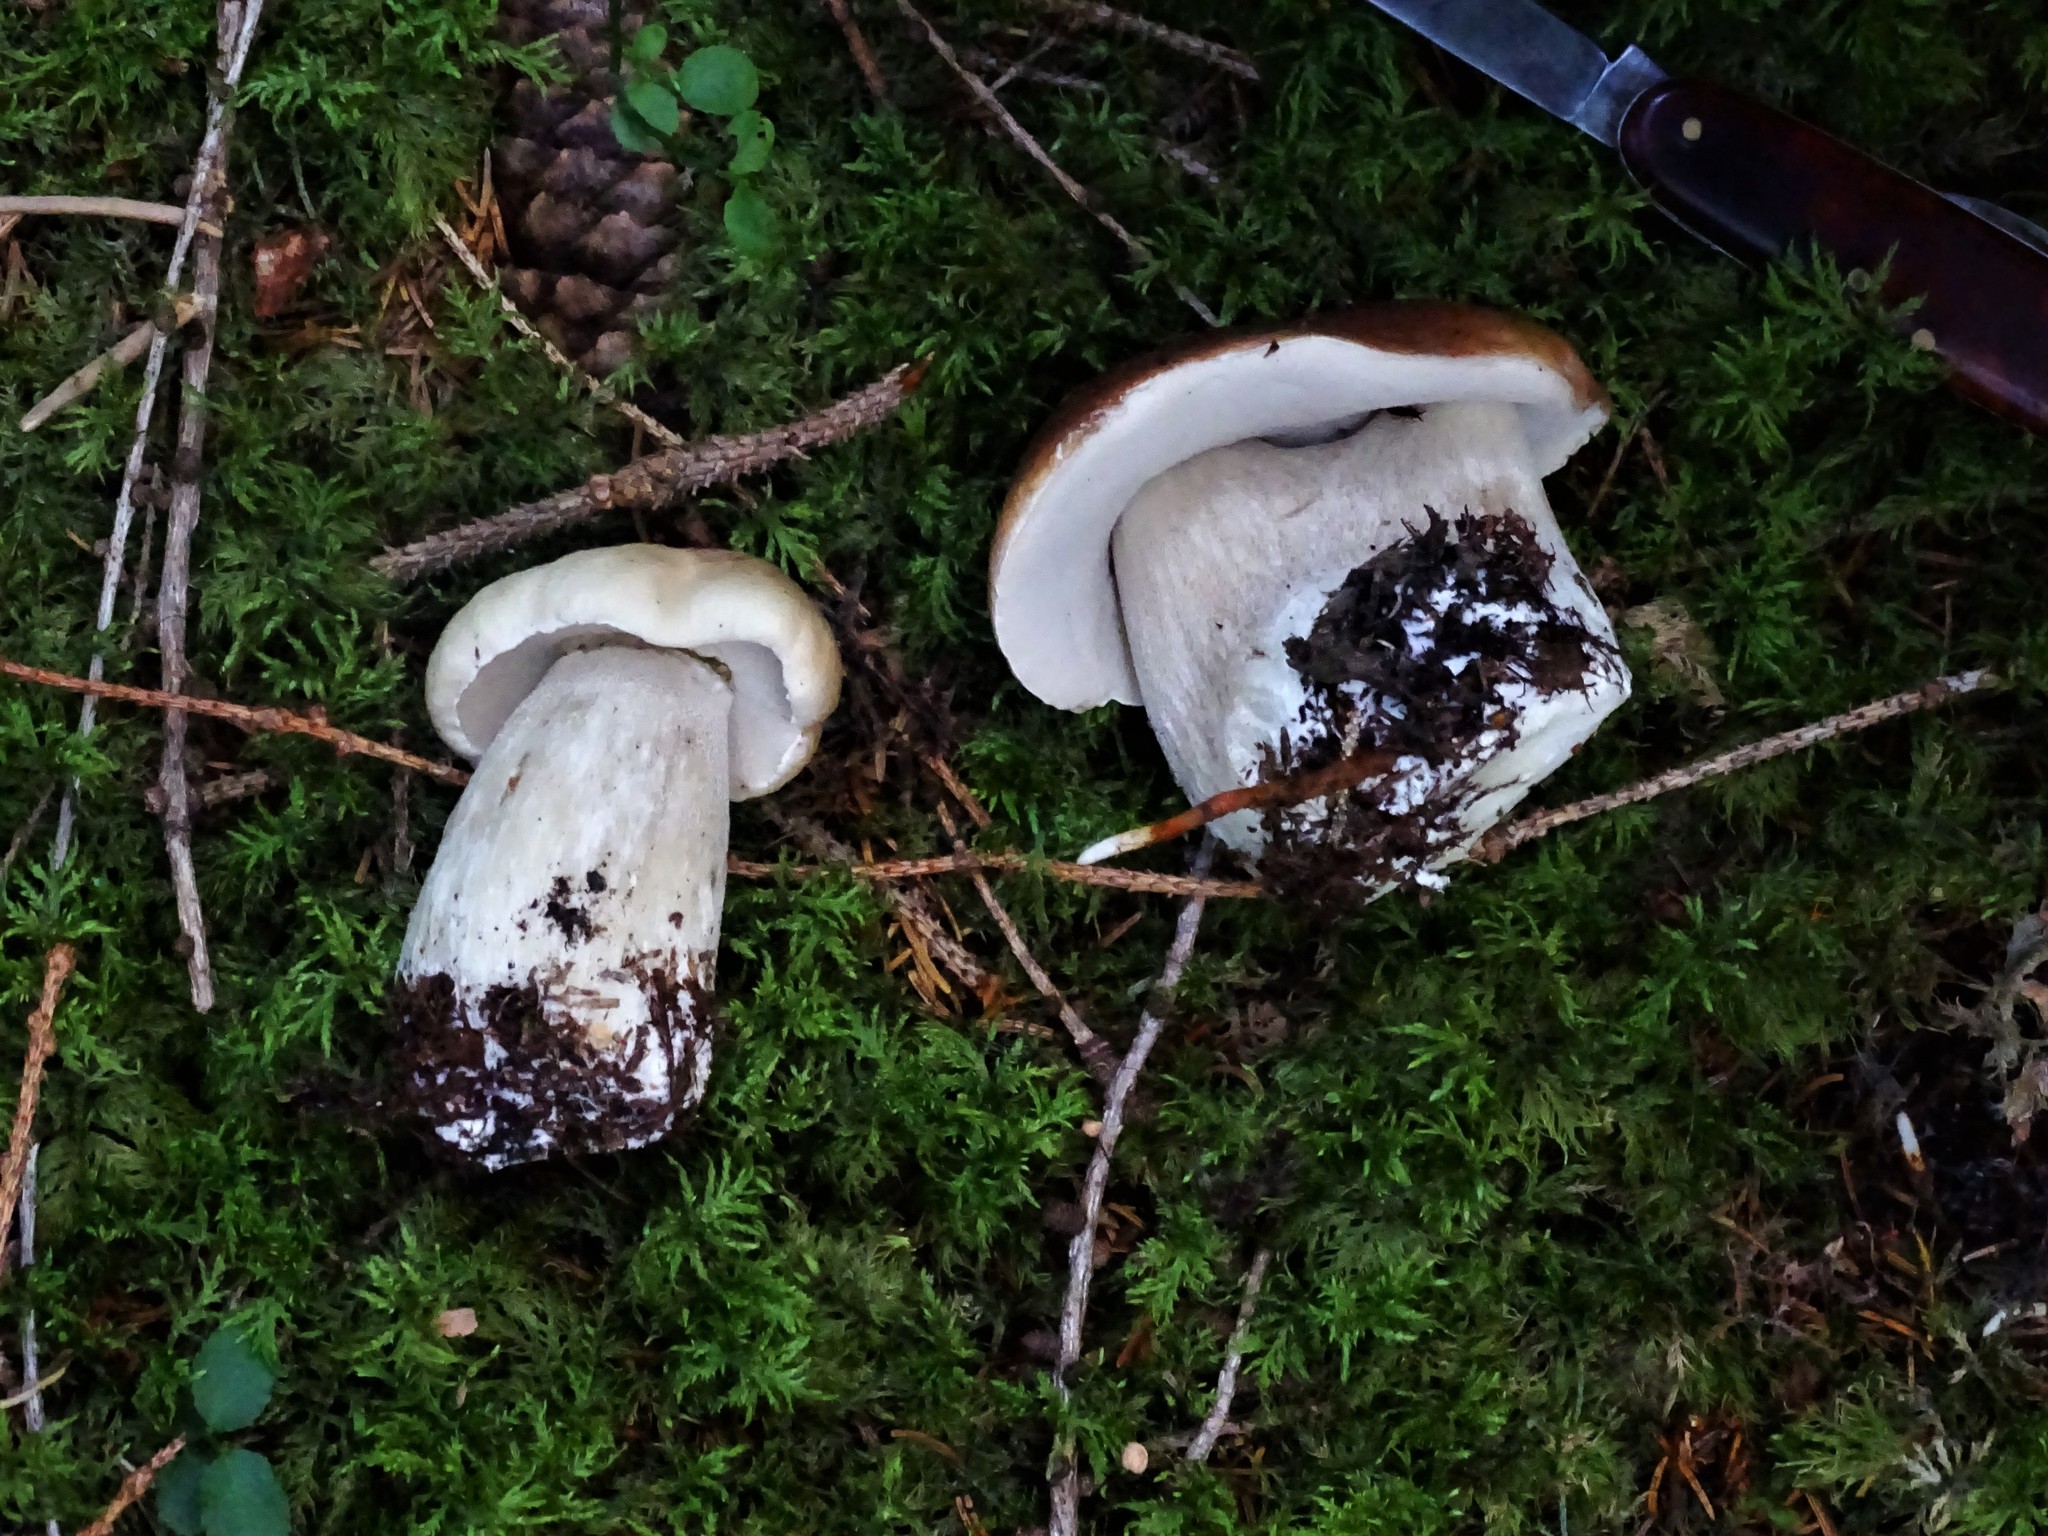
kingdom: Fungi
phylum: Basidiomycota
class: Agaricomycetes
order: Boletales
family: Boletaceae
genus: Boletus
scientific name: Boletus edulis
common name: Cep
